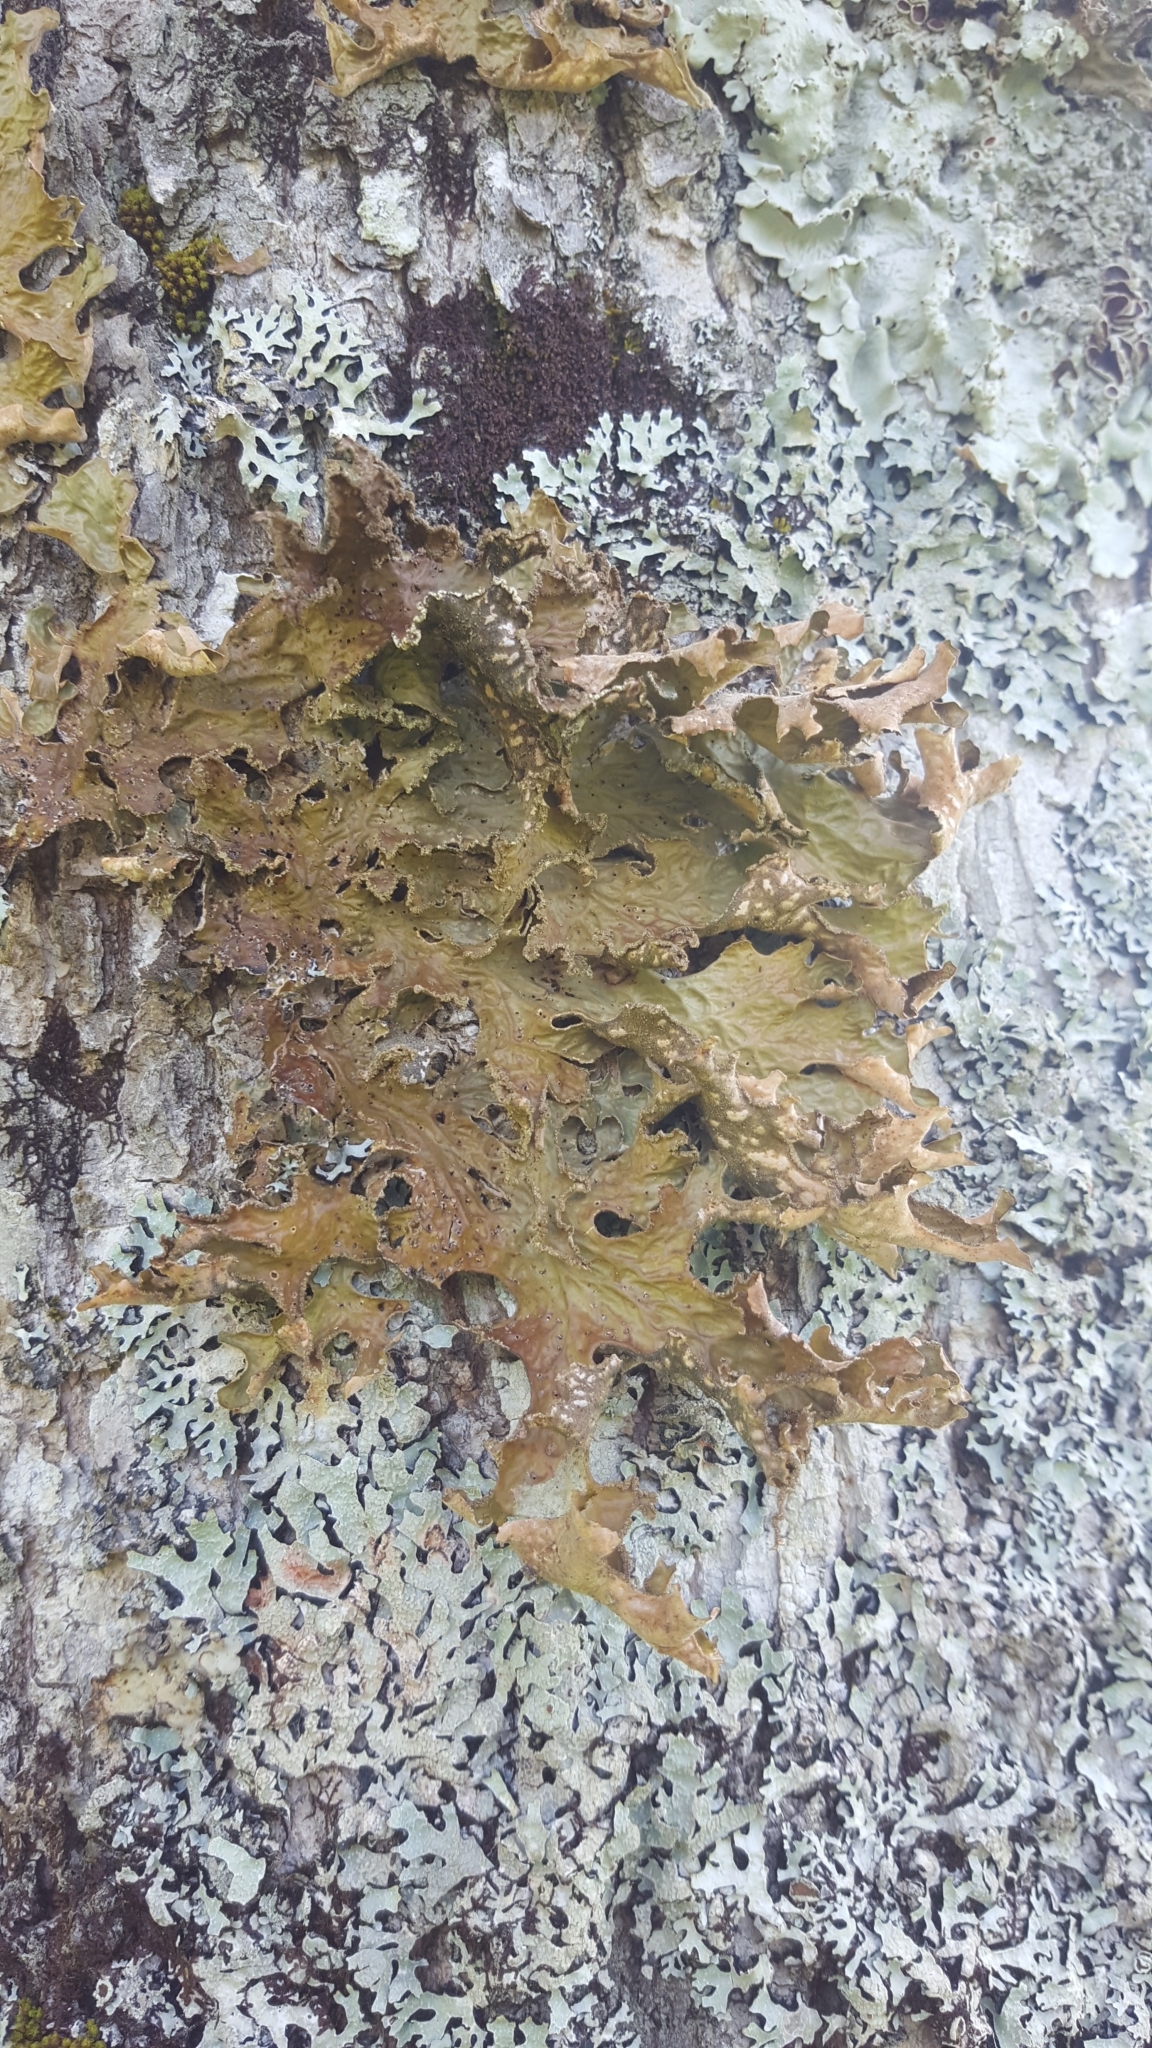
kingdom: Fungi
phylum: Ascomycota
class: Lecanoromycetes
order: Peltigerales
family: Lobariaceae
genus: Lobaria
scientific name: Lobaria pulmonaria
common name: Lungwort
